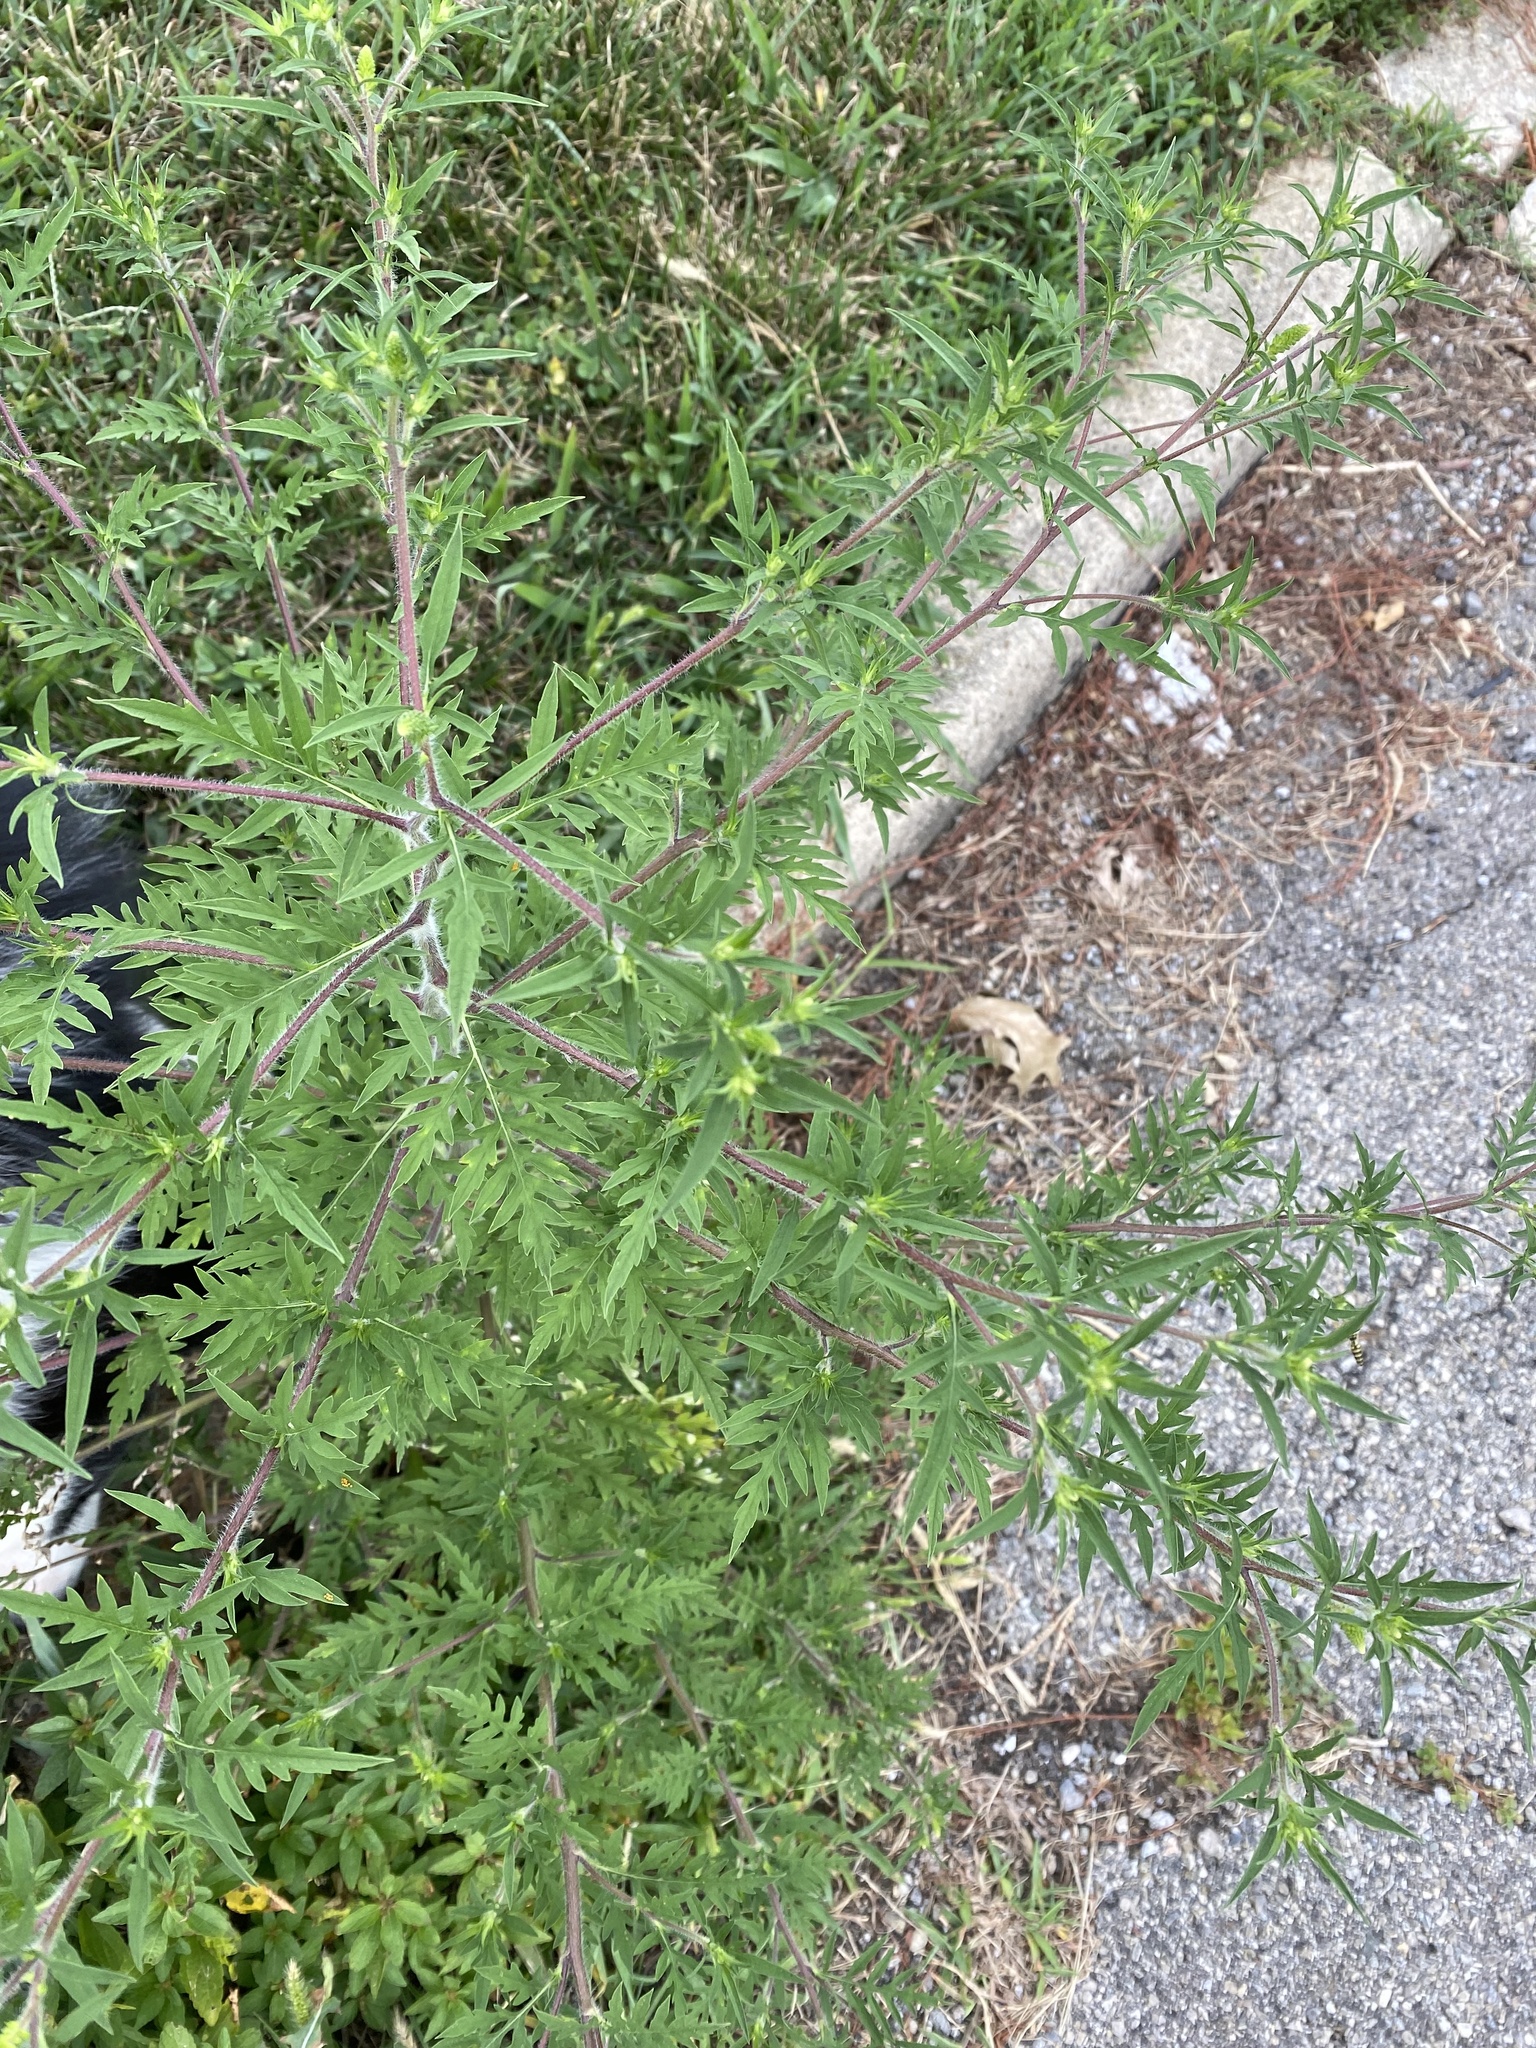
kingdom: Plantae
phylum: Tracheophyta
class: Magnoliopsida
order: Asterales
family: Asteraceae
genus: Ambrosia
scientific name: Ambrosia artemisiifolia
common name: Annual ragweed
